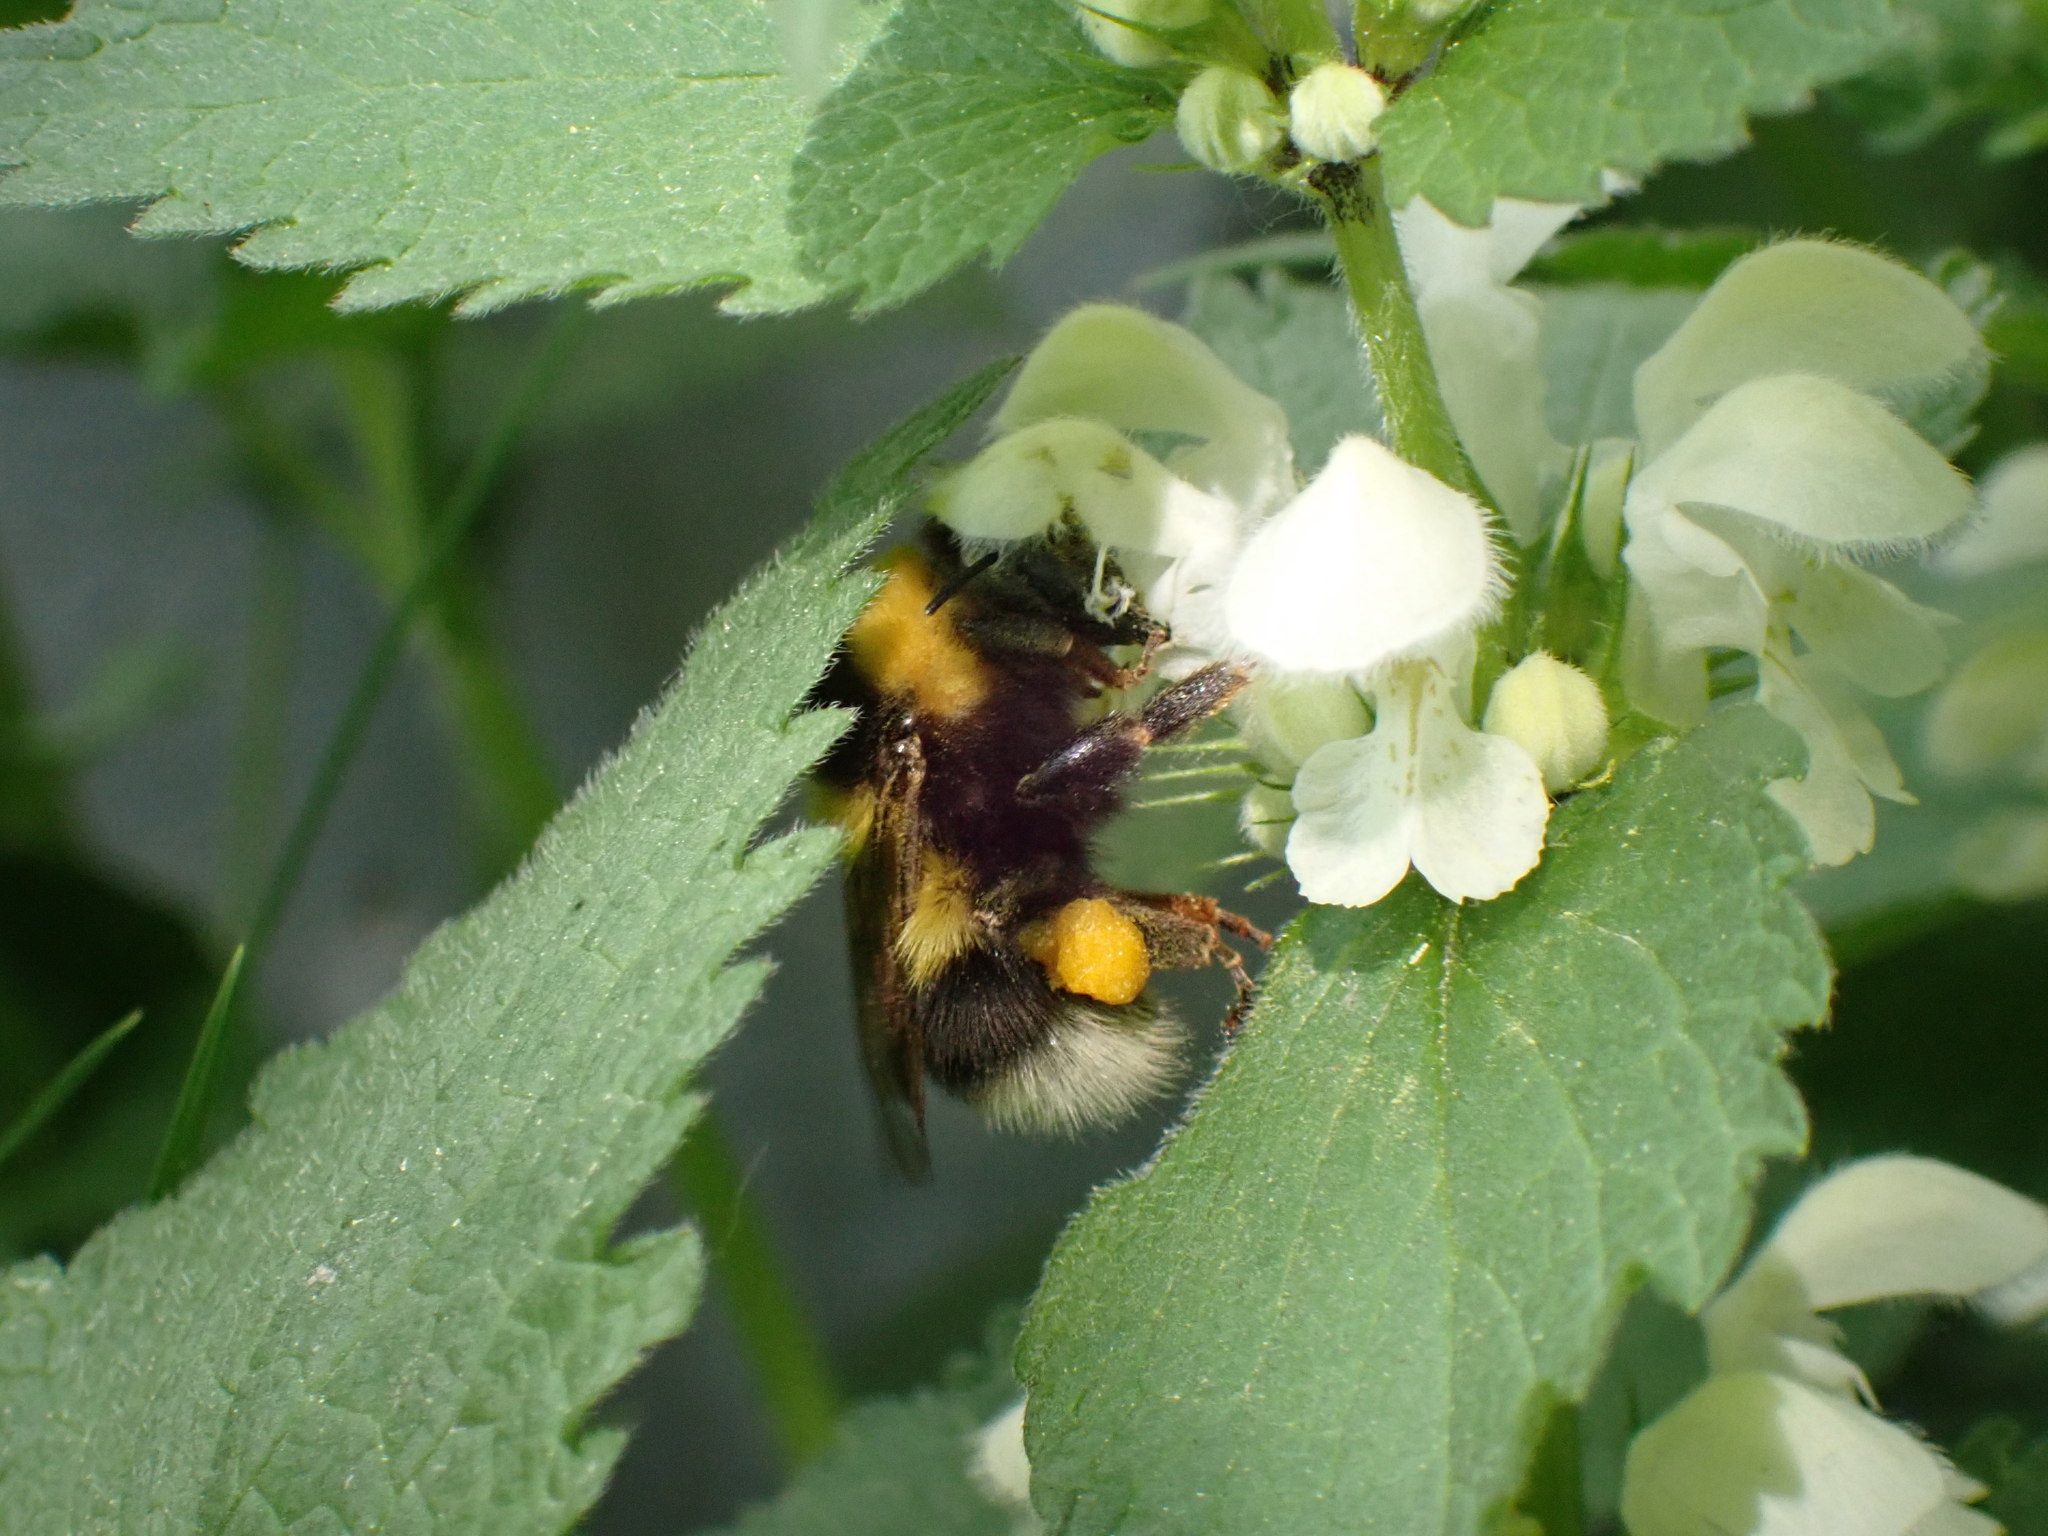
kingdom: Plantae
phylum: Tracheophyta
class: Magnoliopsida
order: Lamiales
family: Lamiaceae
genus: Lamium
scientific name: Lamium album
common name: White dead-nettle
